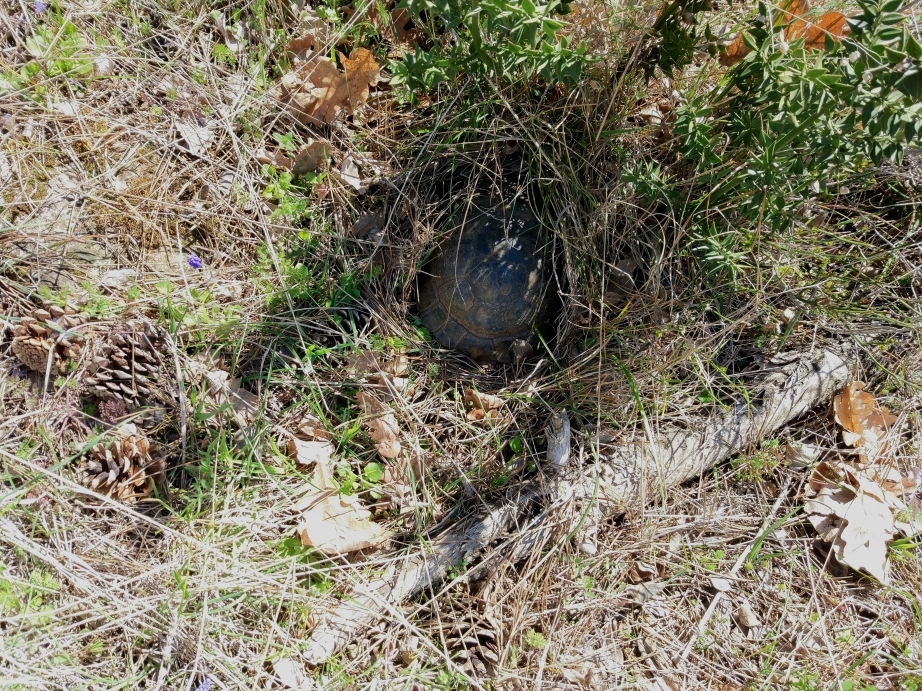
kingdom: Animalia
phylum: Chordata
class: Testudines
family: Testudinidae
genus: Testudo
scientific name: Testudo graeca
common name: Common tortoise
